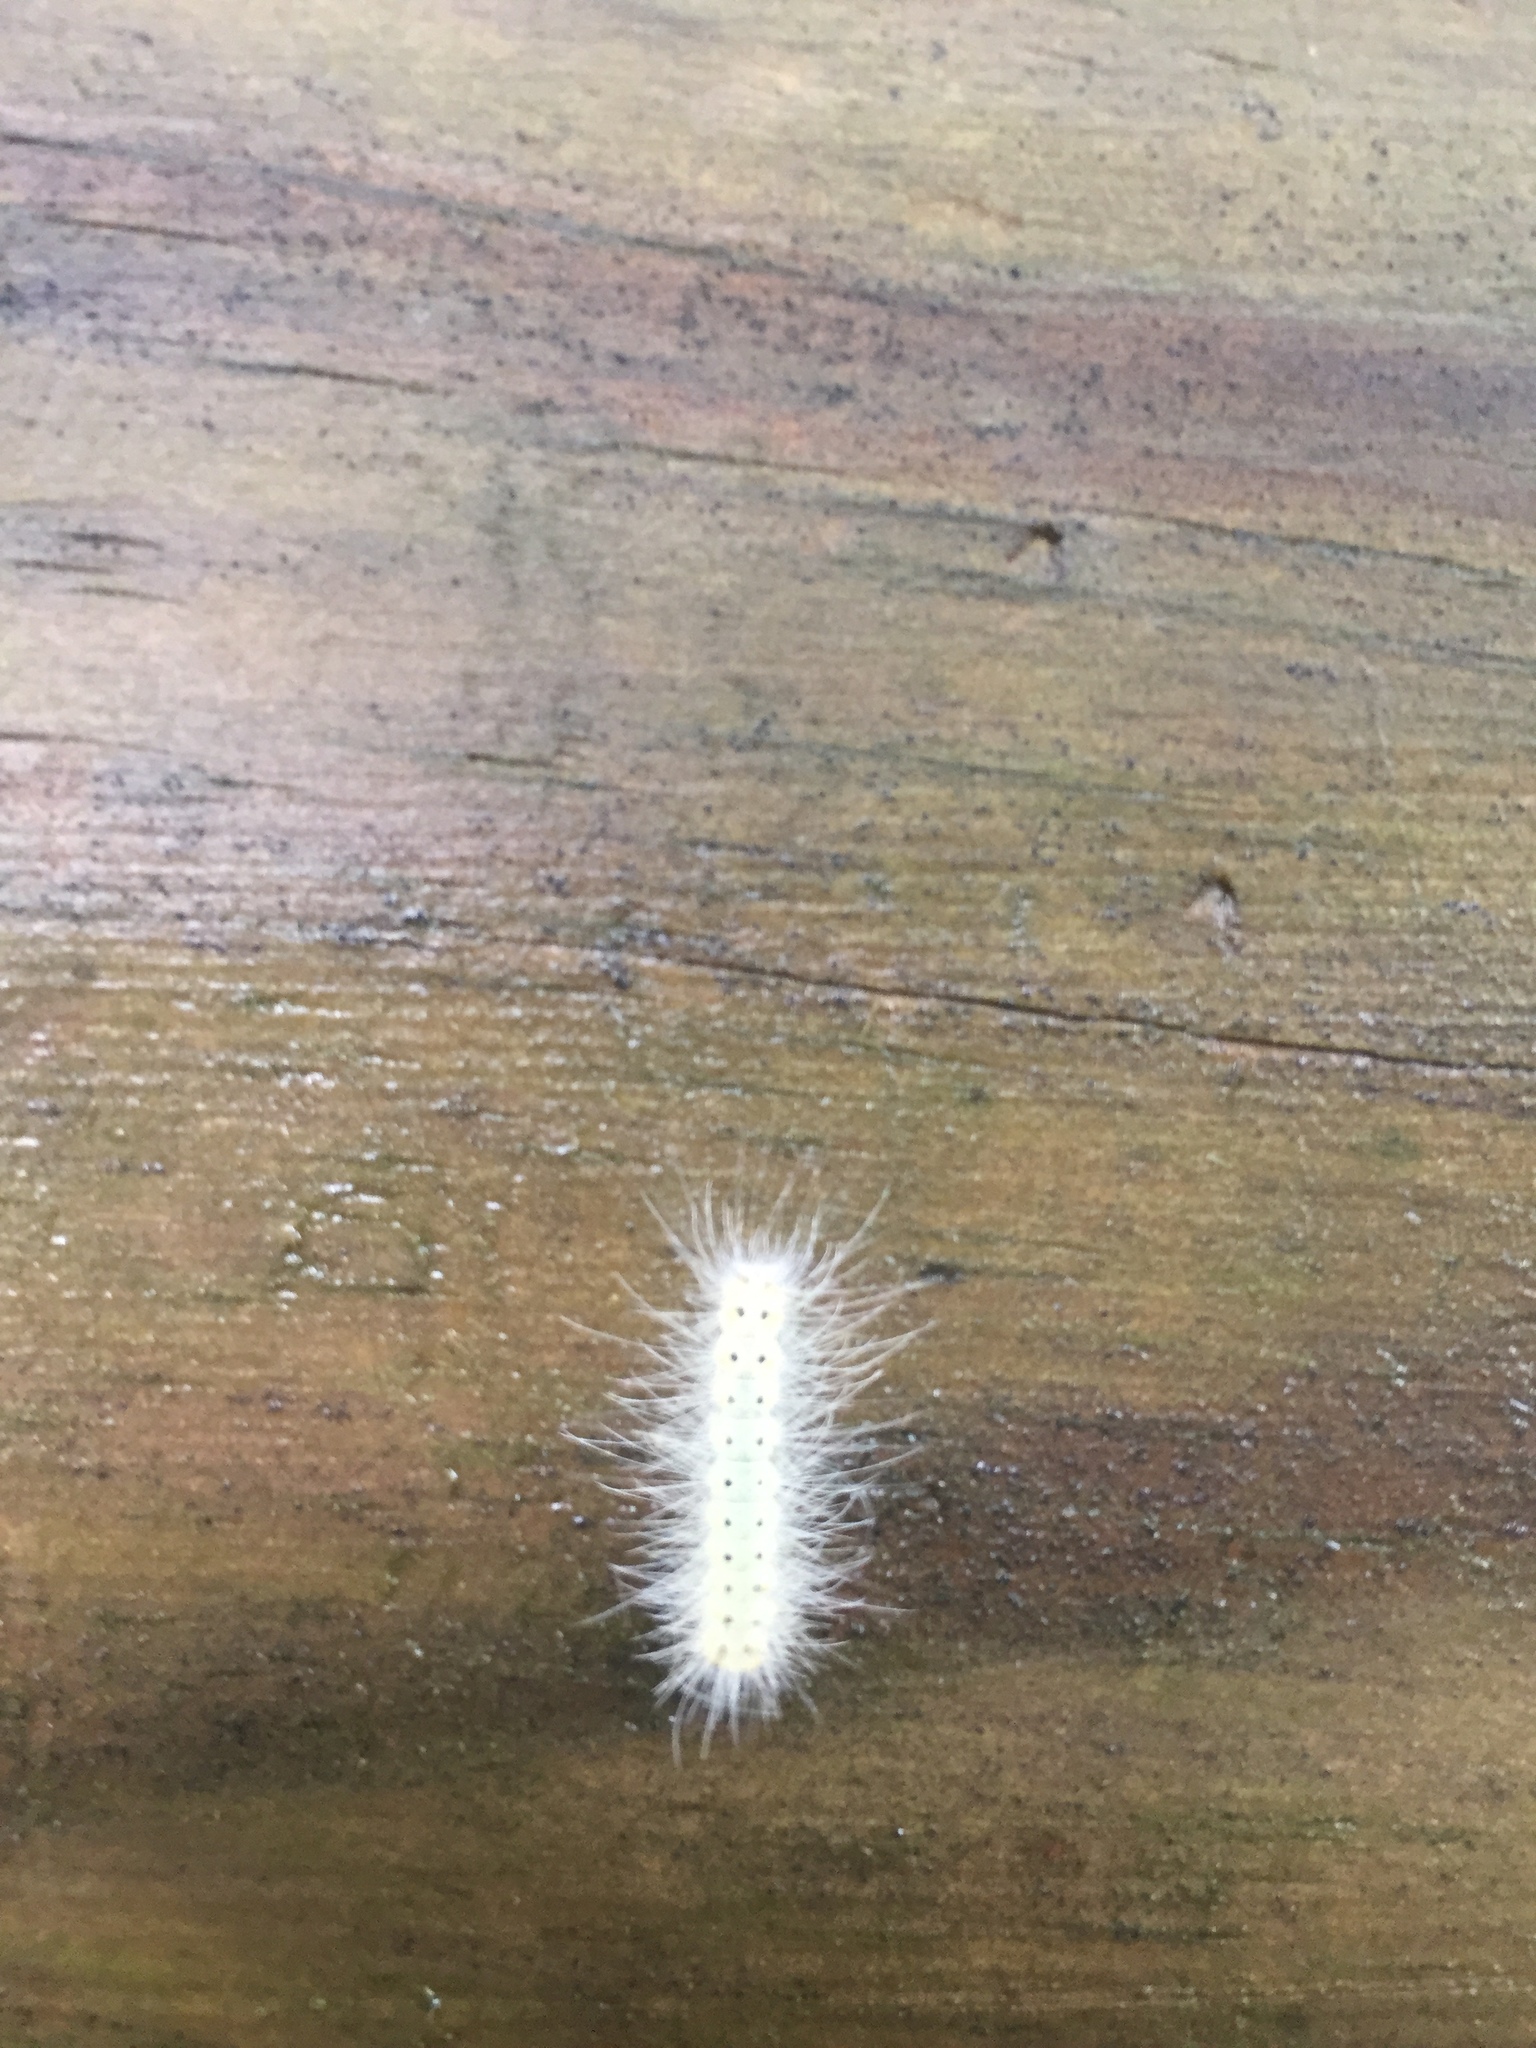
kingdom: Animalia
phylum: Arthropoda
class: Insecta
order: Lepidoptera
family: Erebidae
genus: Hyphantria
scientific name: Hyphantria cunea
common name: American white moth
